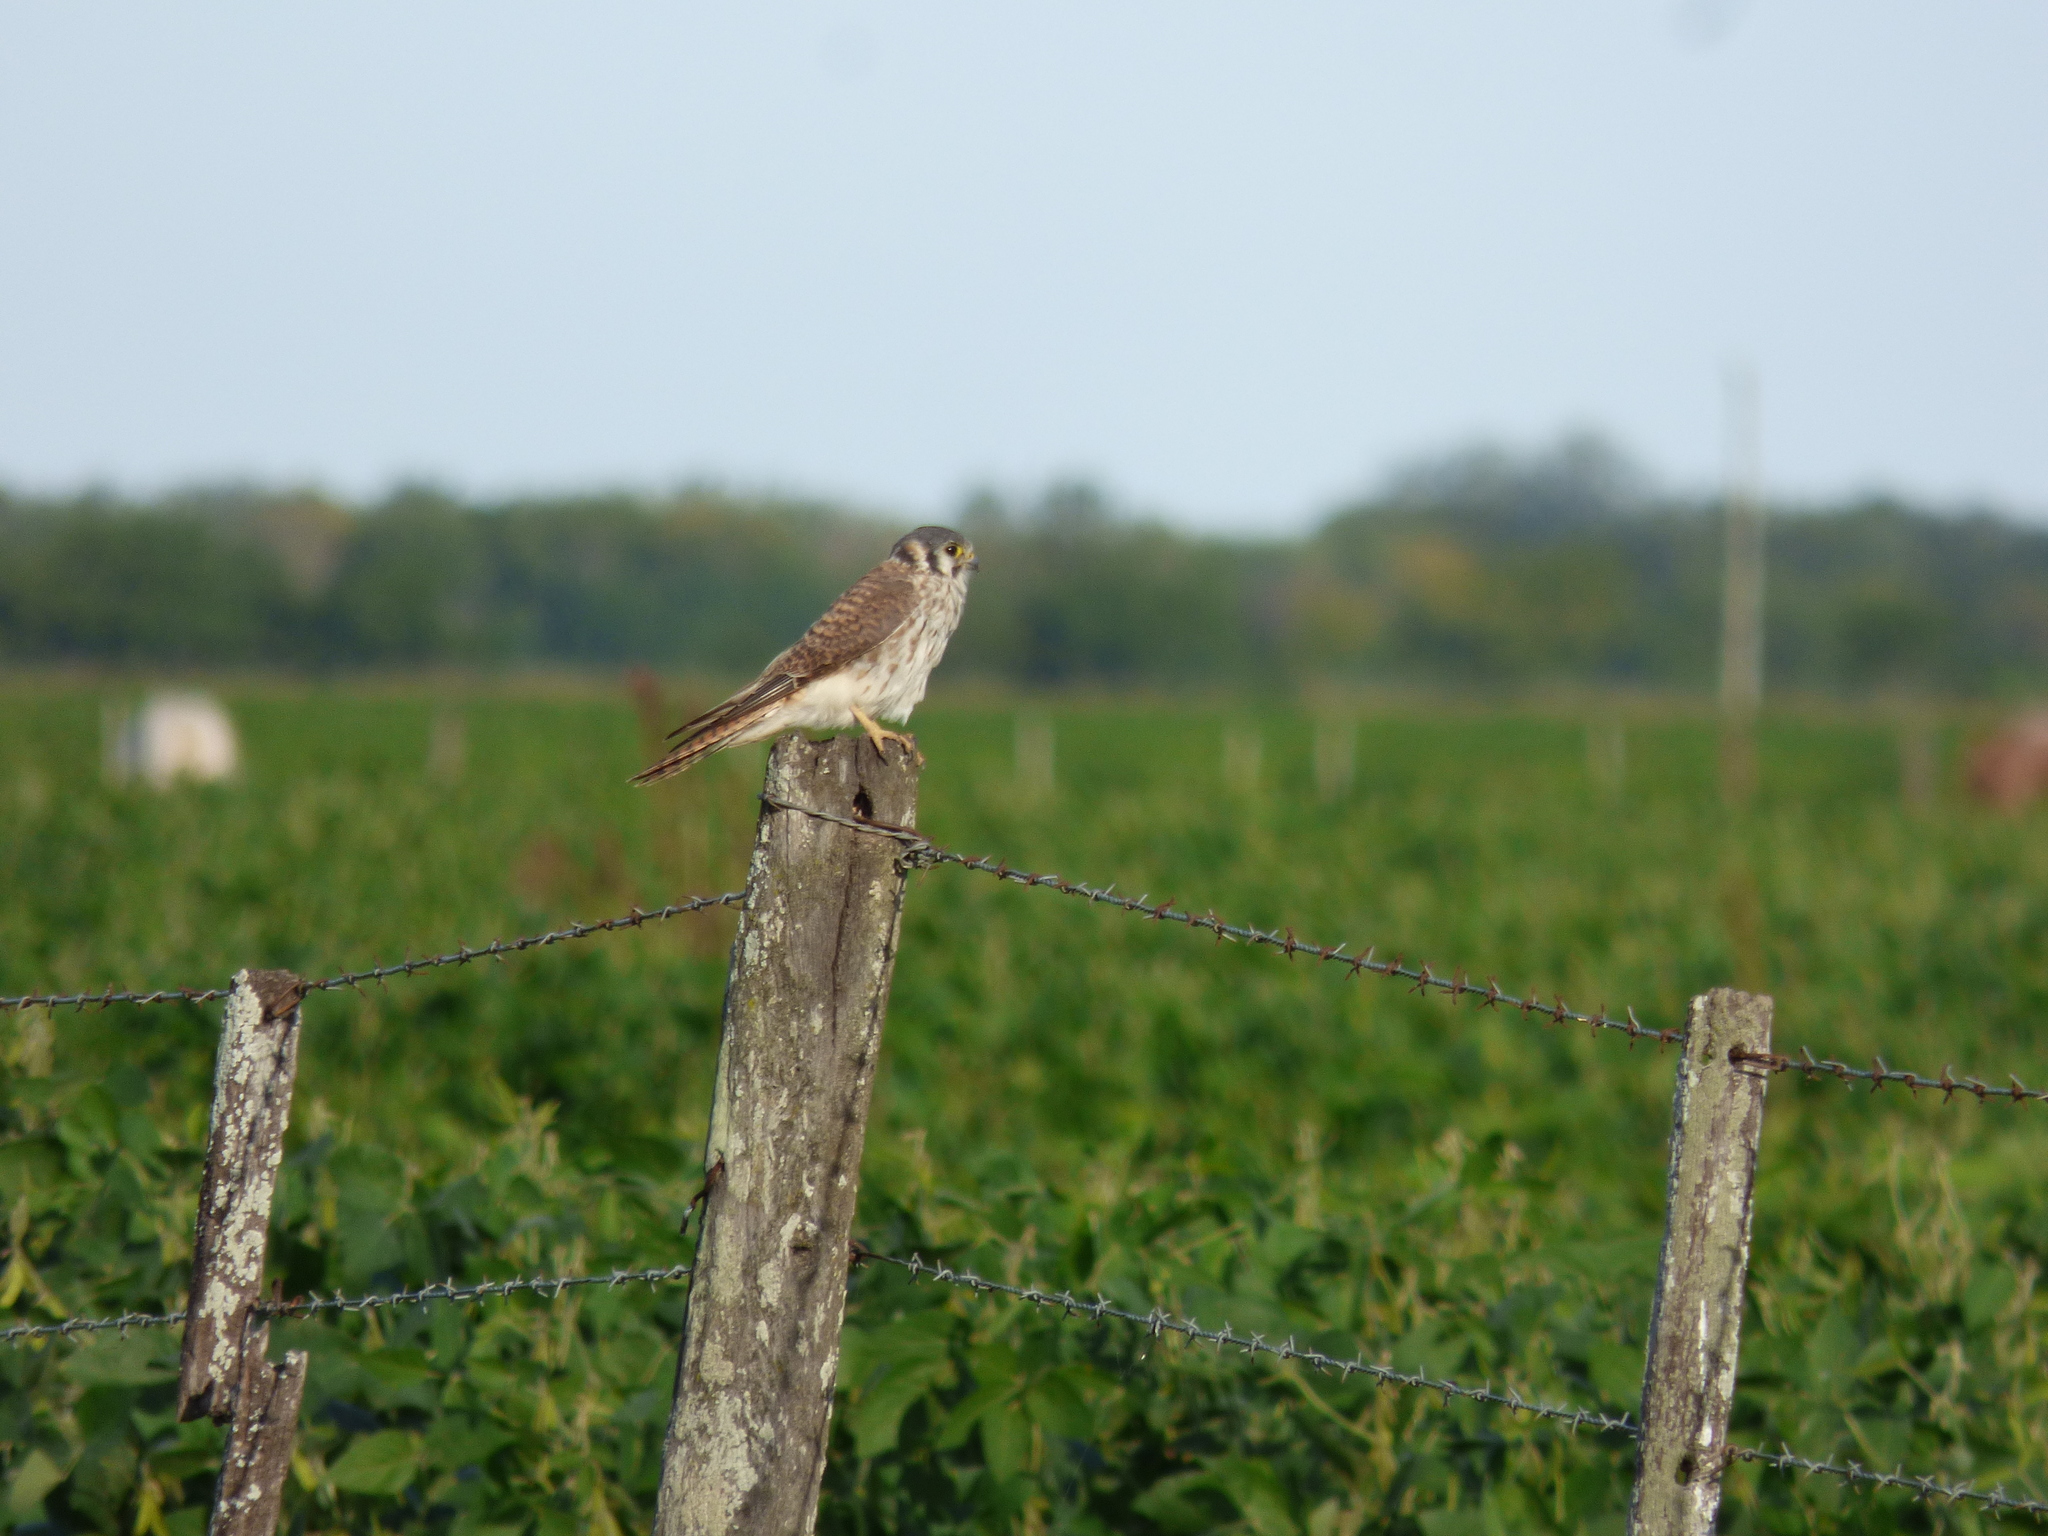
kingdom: Animalia
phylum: Chordata
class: Aves
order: Falconiformes
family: Falconidae
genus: Falco
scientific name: Falco sparverius
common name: American kestrel
